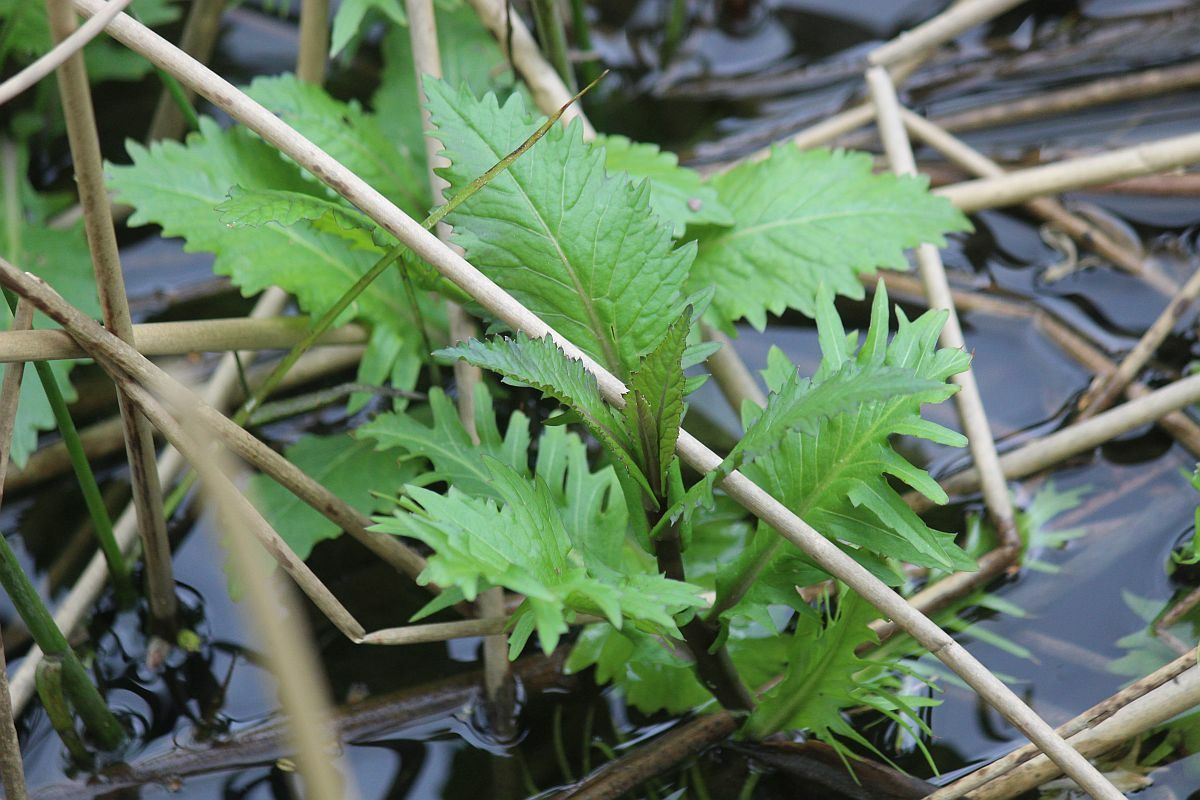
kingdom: Plantae
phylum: Tracheophyta
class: Magnoliopsida
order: Lamiales
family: Lamiaceae
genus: Lycopus
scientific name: Lycopus europaeus
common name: European bugleweed
